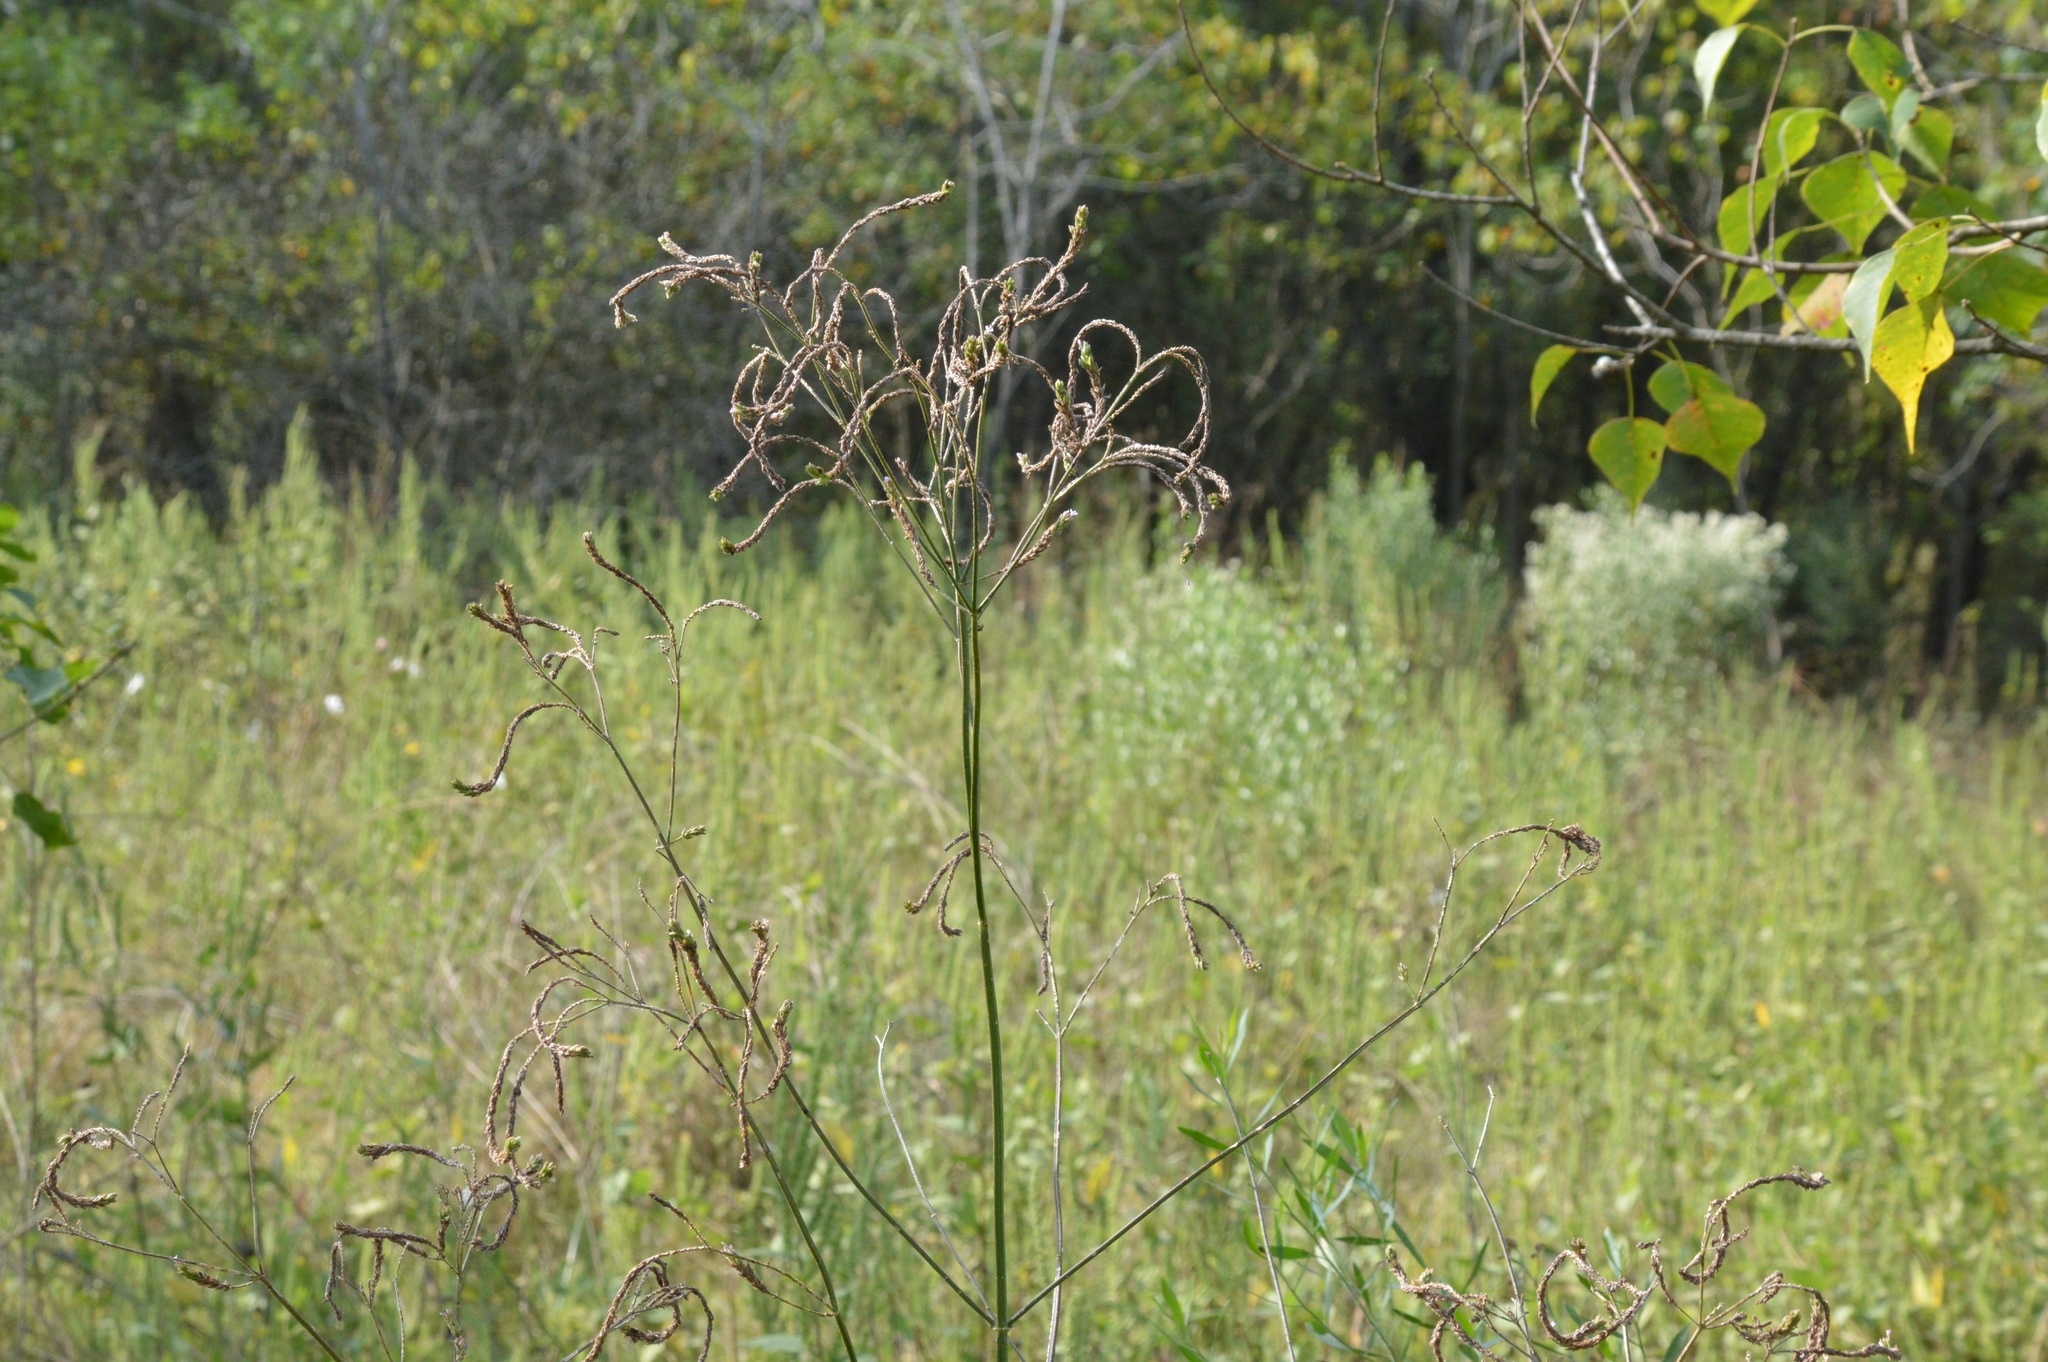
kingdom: Plantae
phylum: Tracheophyta
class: Magnoliopsida
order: Lamiales
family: Verbenaceae
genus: Verbena
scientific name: Verbena brasiliensis
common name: Brazilian vervain
